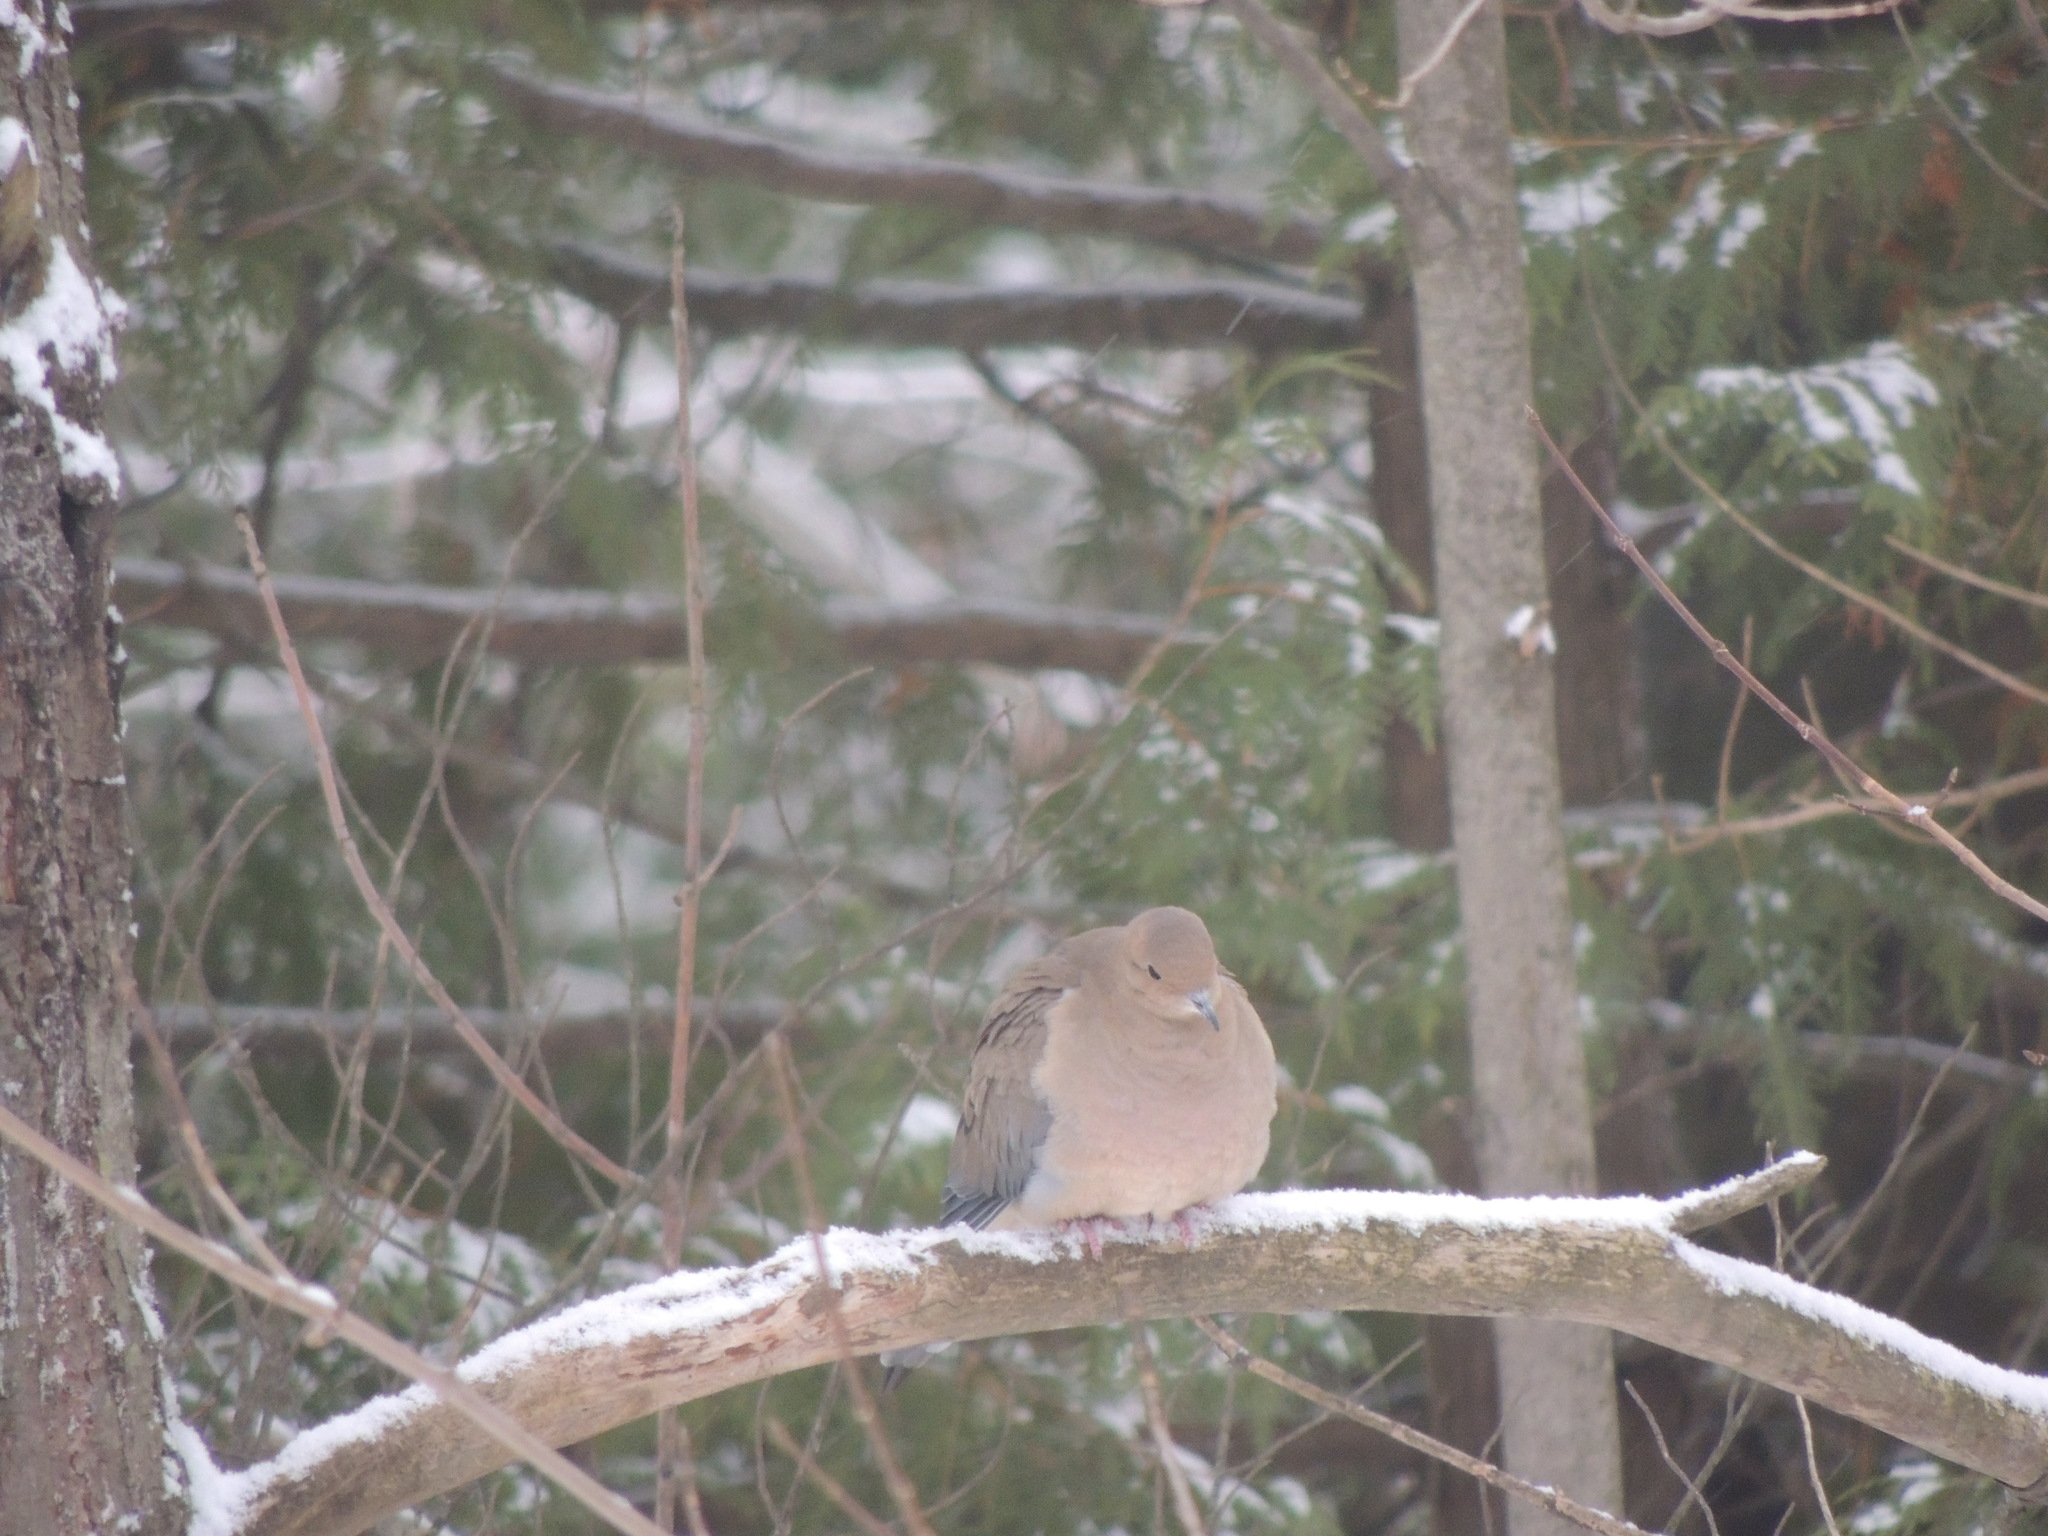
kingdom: Animalia
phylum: Chordata
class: Aves
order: Columbiformes
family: Columbidae
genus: Zenaida
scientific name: Zenaida macroura
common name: Mourning dove
